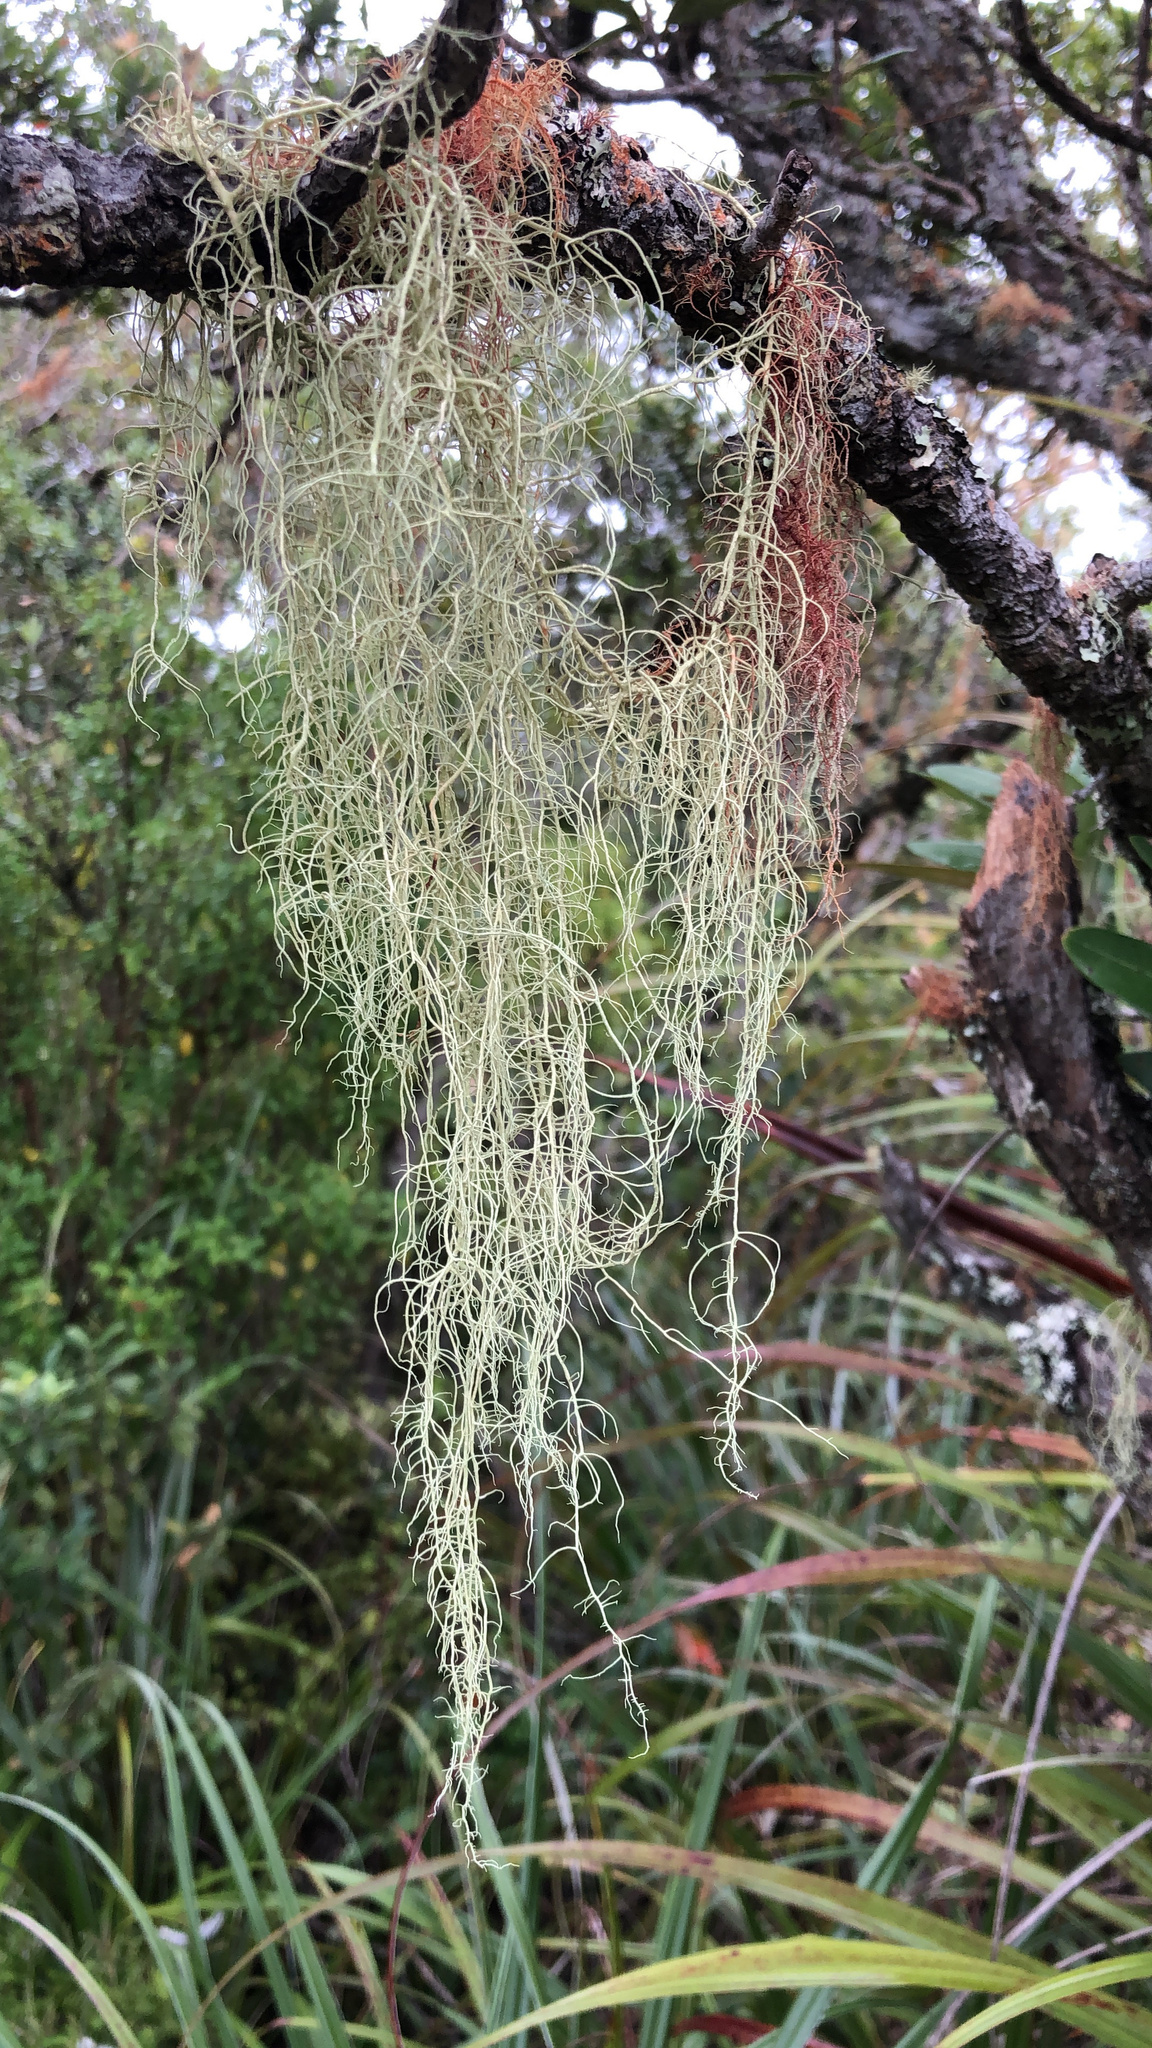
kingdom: Fungi
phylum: Ascomycota
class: Lecanoromycetes
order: Lecanorales
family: Parmeliaceae
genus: Dolichousnea
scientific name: Dolichousnea longissima
